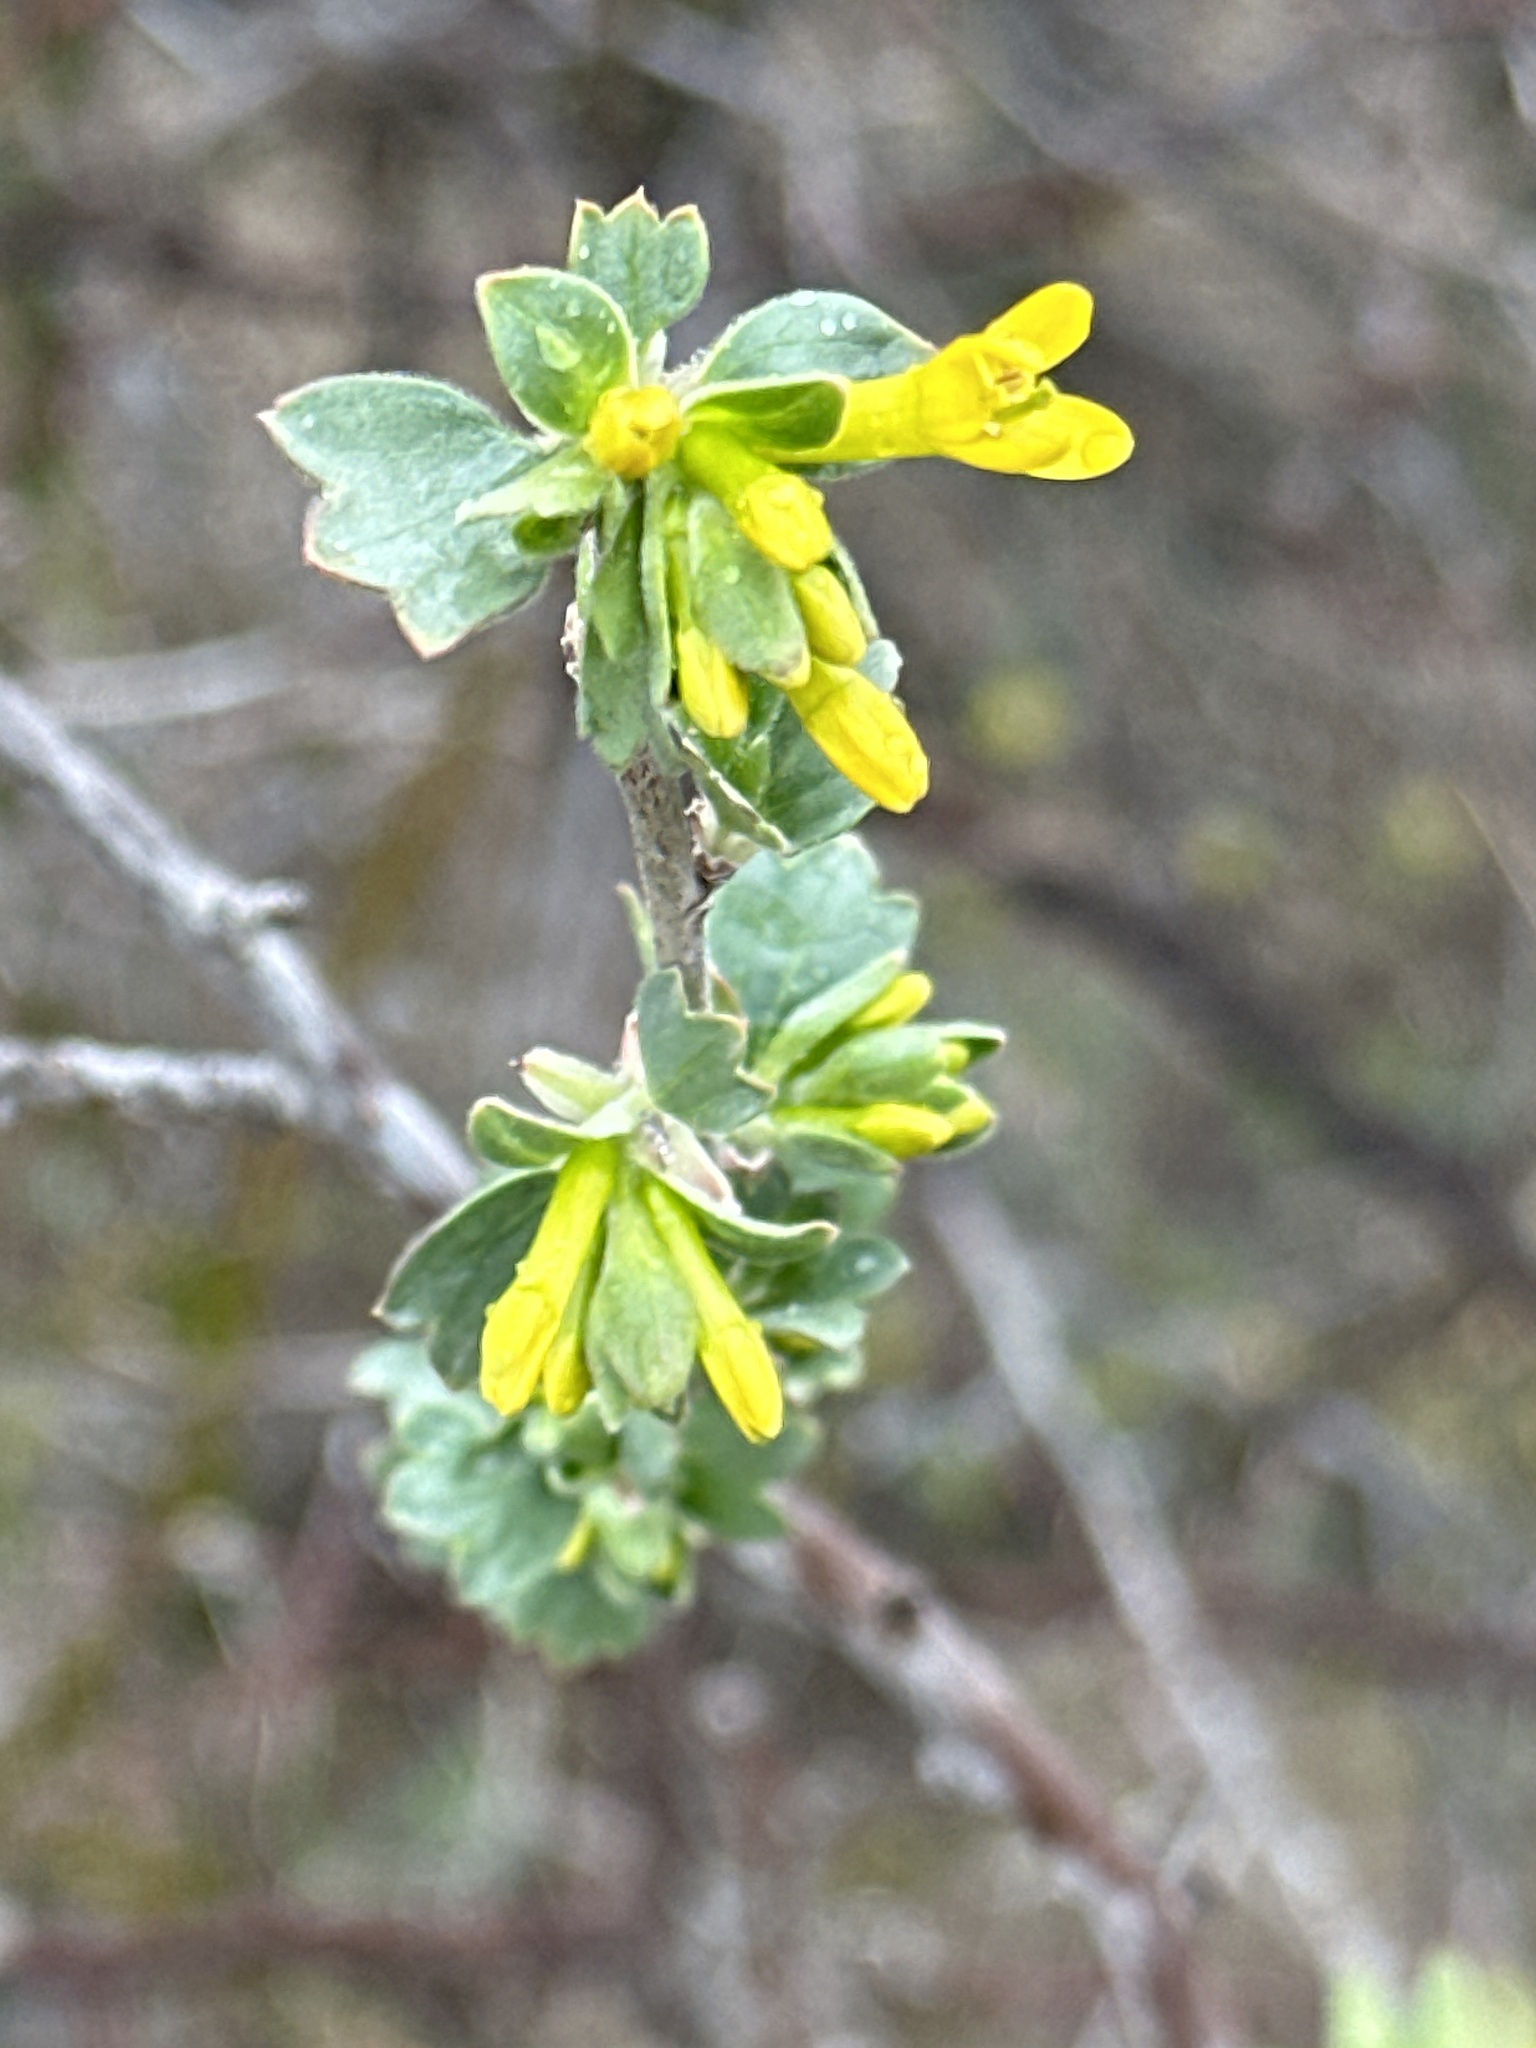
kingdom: Plantae
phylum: Tracheophyta
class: Magnoliopsida
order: Saxifragales
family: Grossulariaceae
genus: Ribes
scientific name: Ribes aureum
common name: Golden currant
